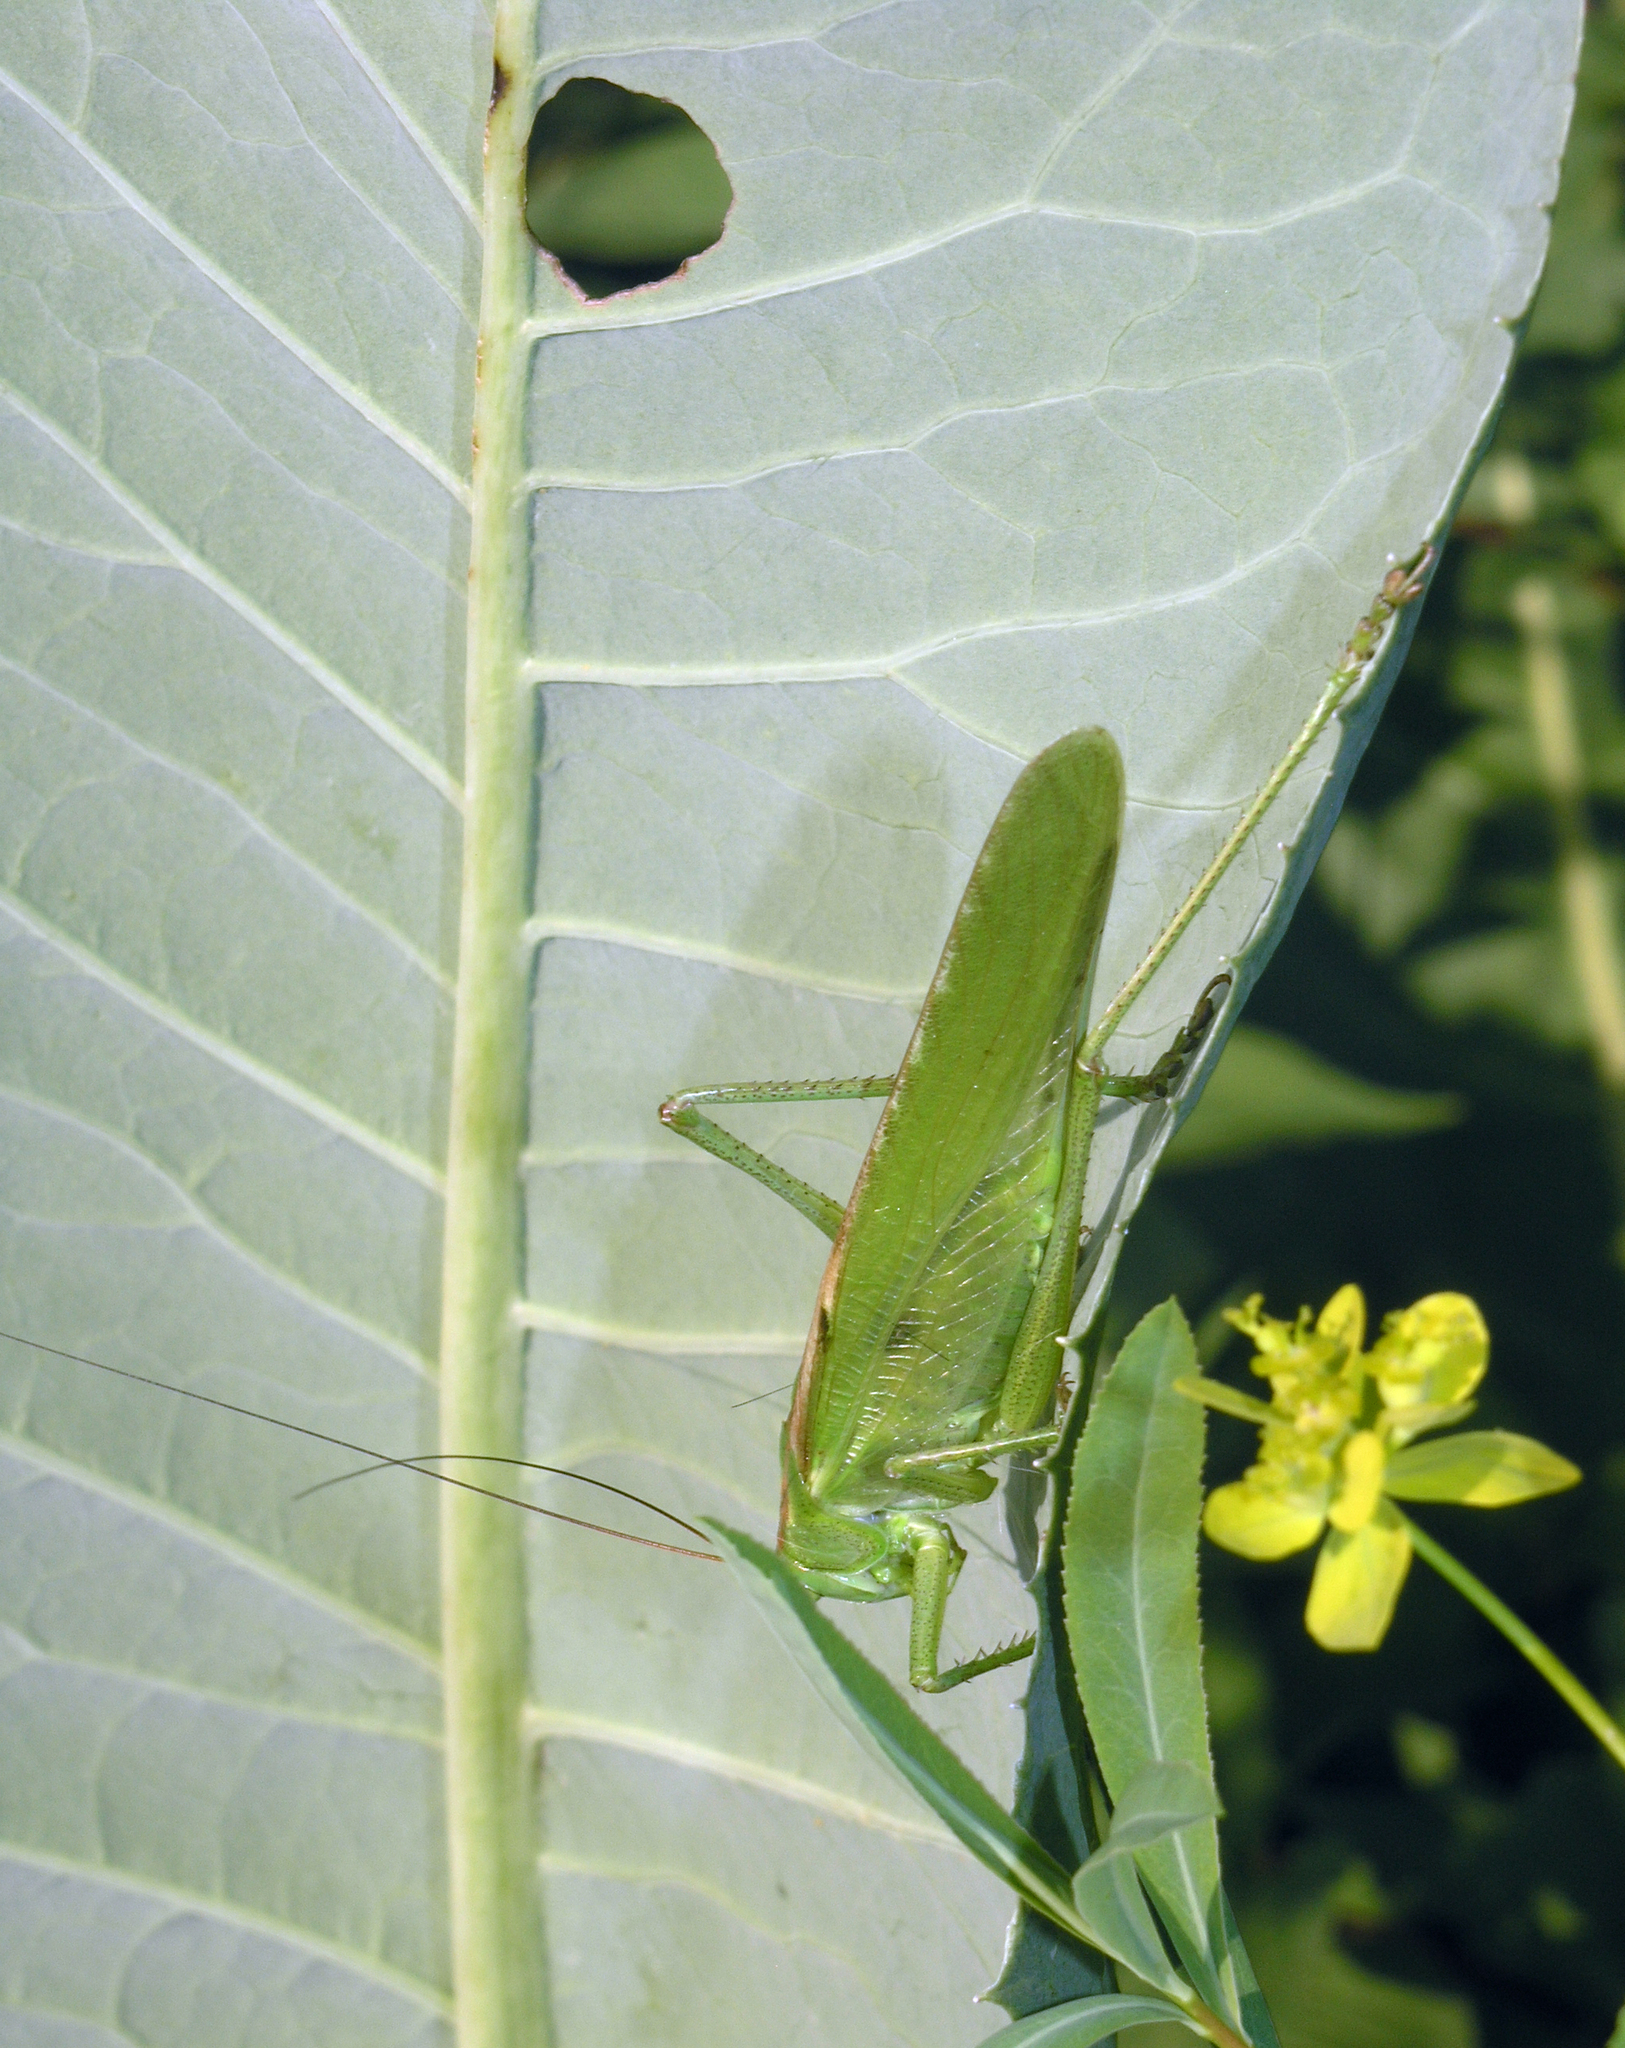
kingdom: Animalia
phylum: Arthropoda
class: Insecta
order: Orthoptera
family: Tettigoniidae
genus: Tettigonia
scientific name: Tettigonia viridissima
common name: Great green bush-cricket
